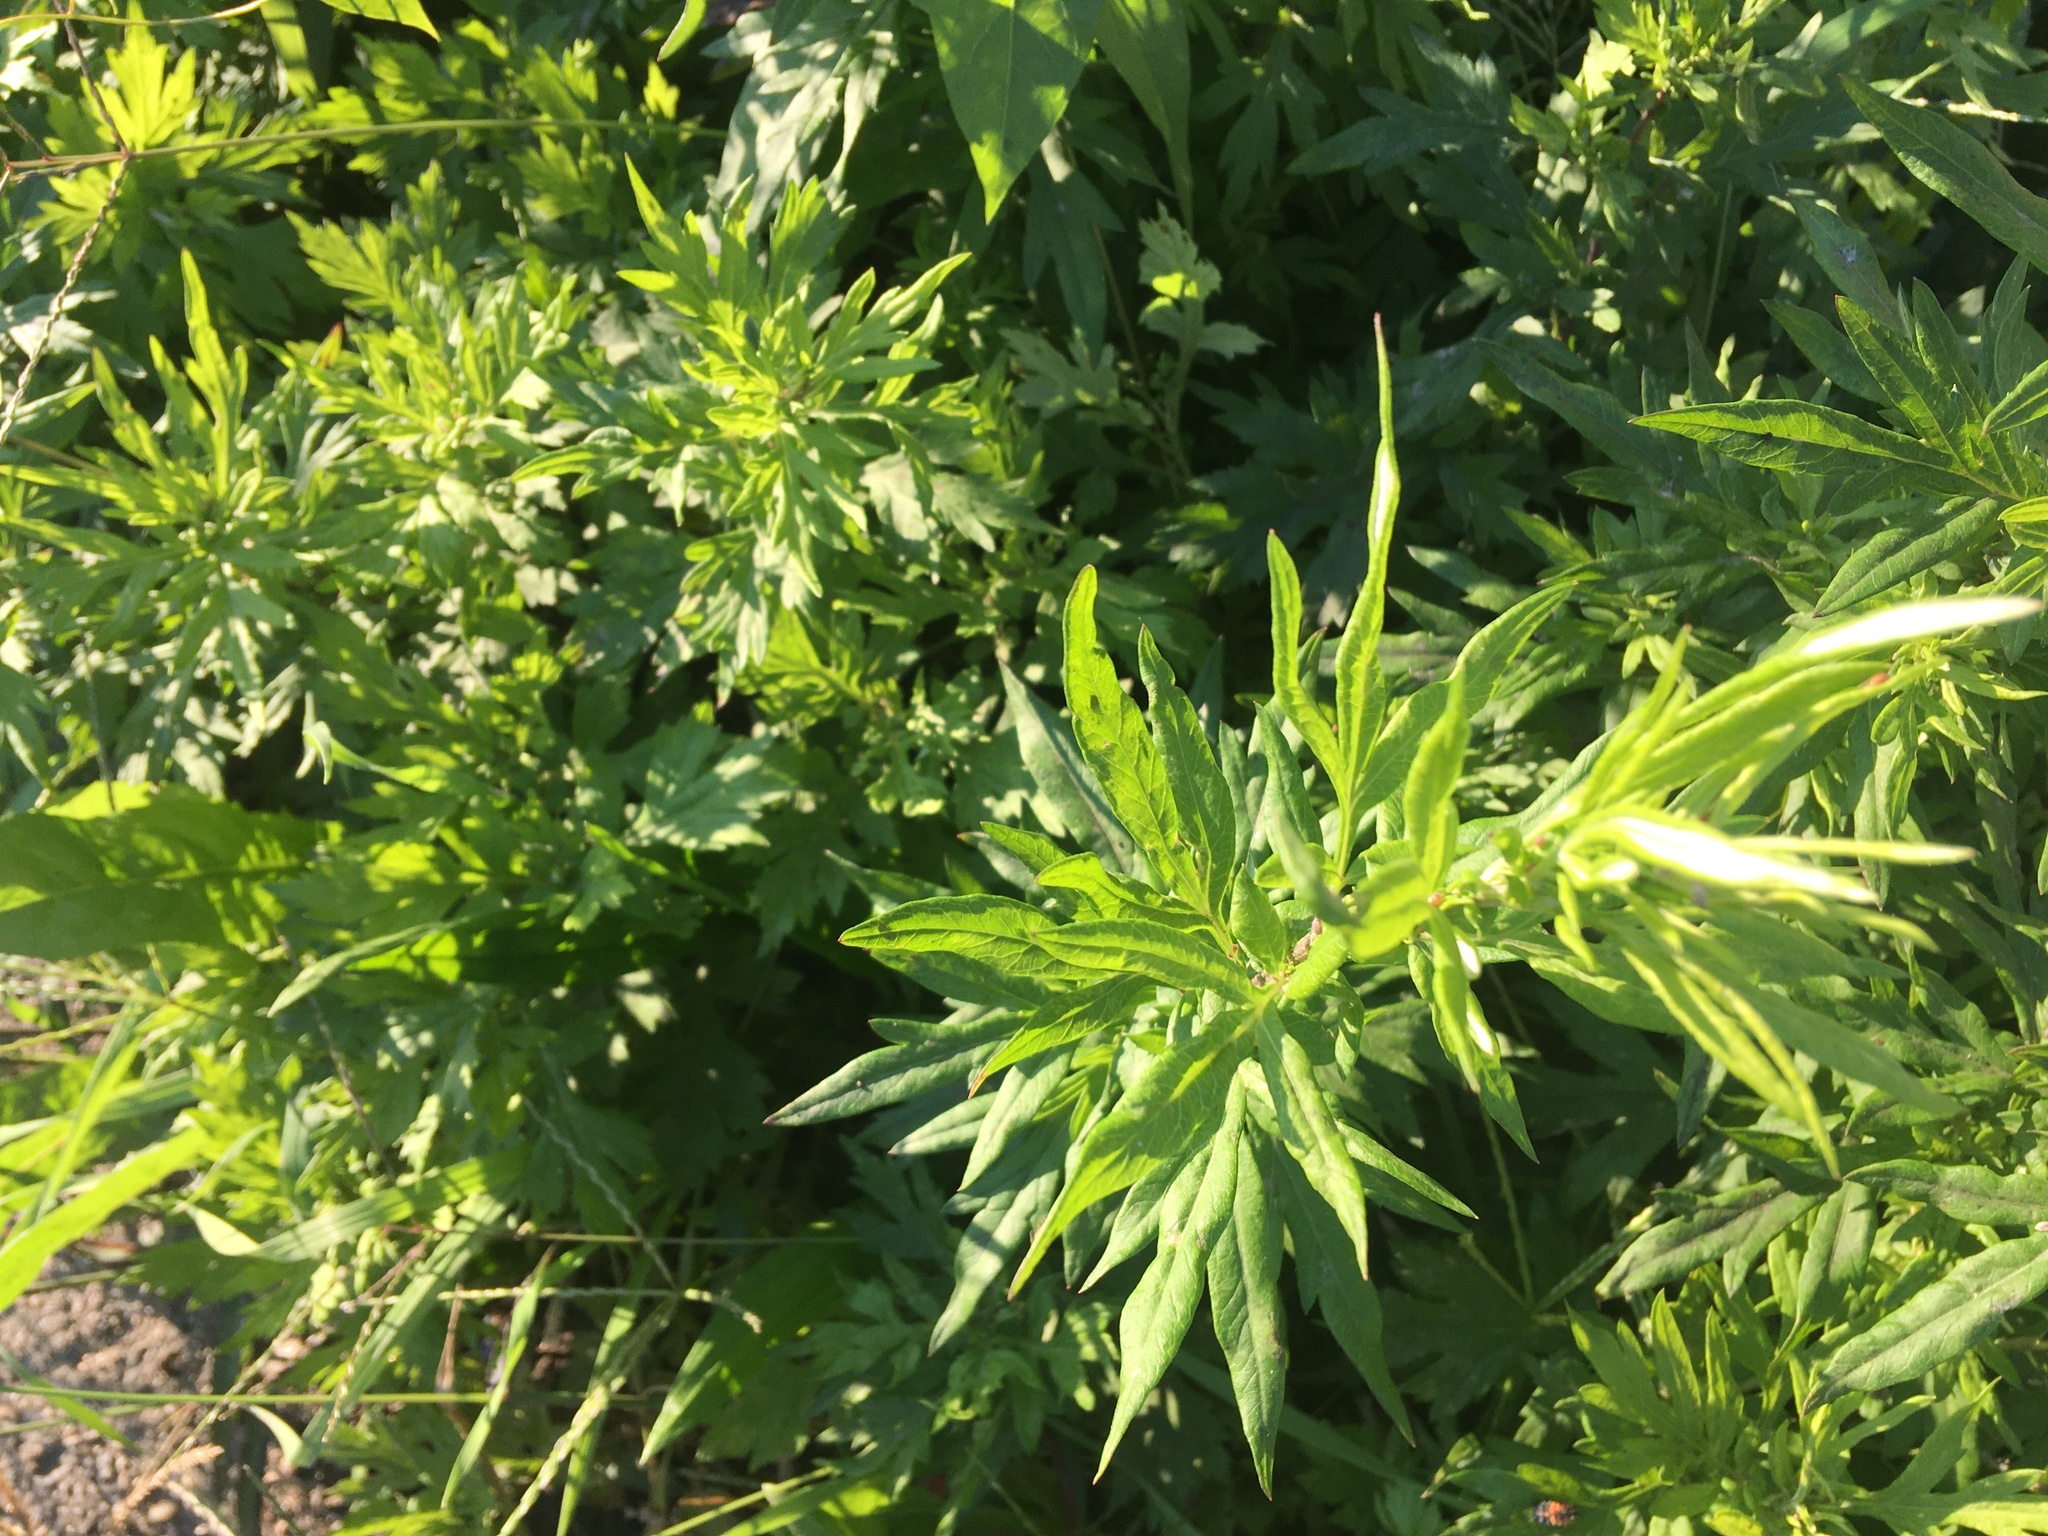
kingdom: Plantae
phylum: Tracheophyta
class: Magnoliopsida
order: Asterales
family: Asteraceae
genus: Artemisia
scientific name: Artemisia vulgaris
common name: Mugwort
